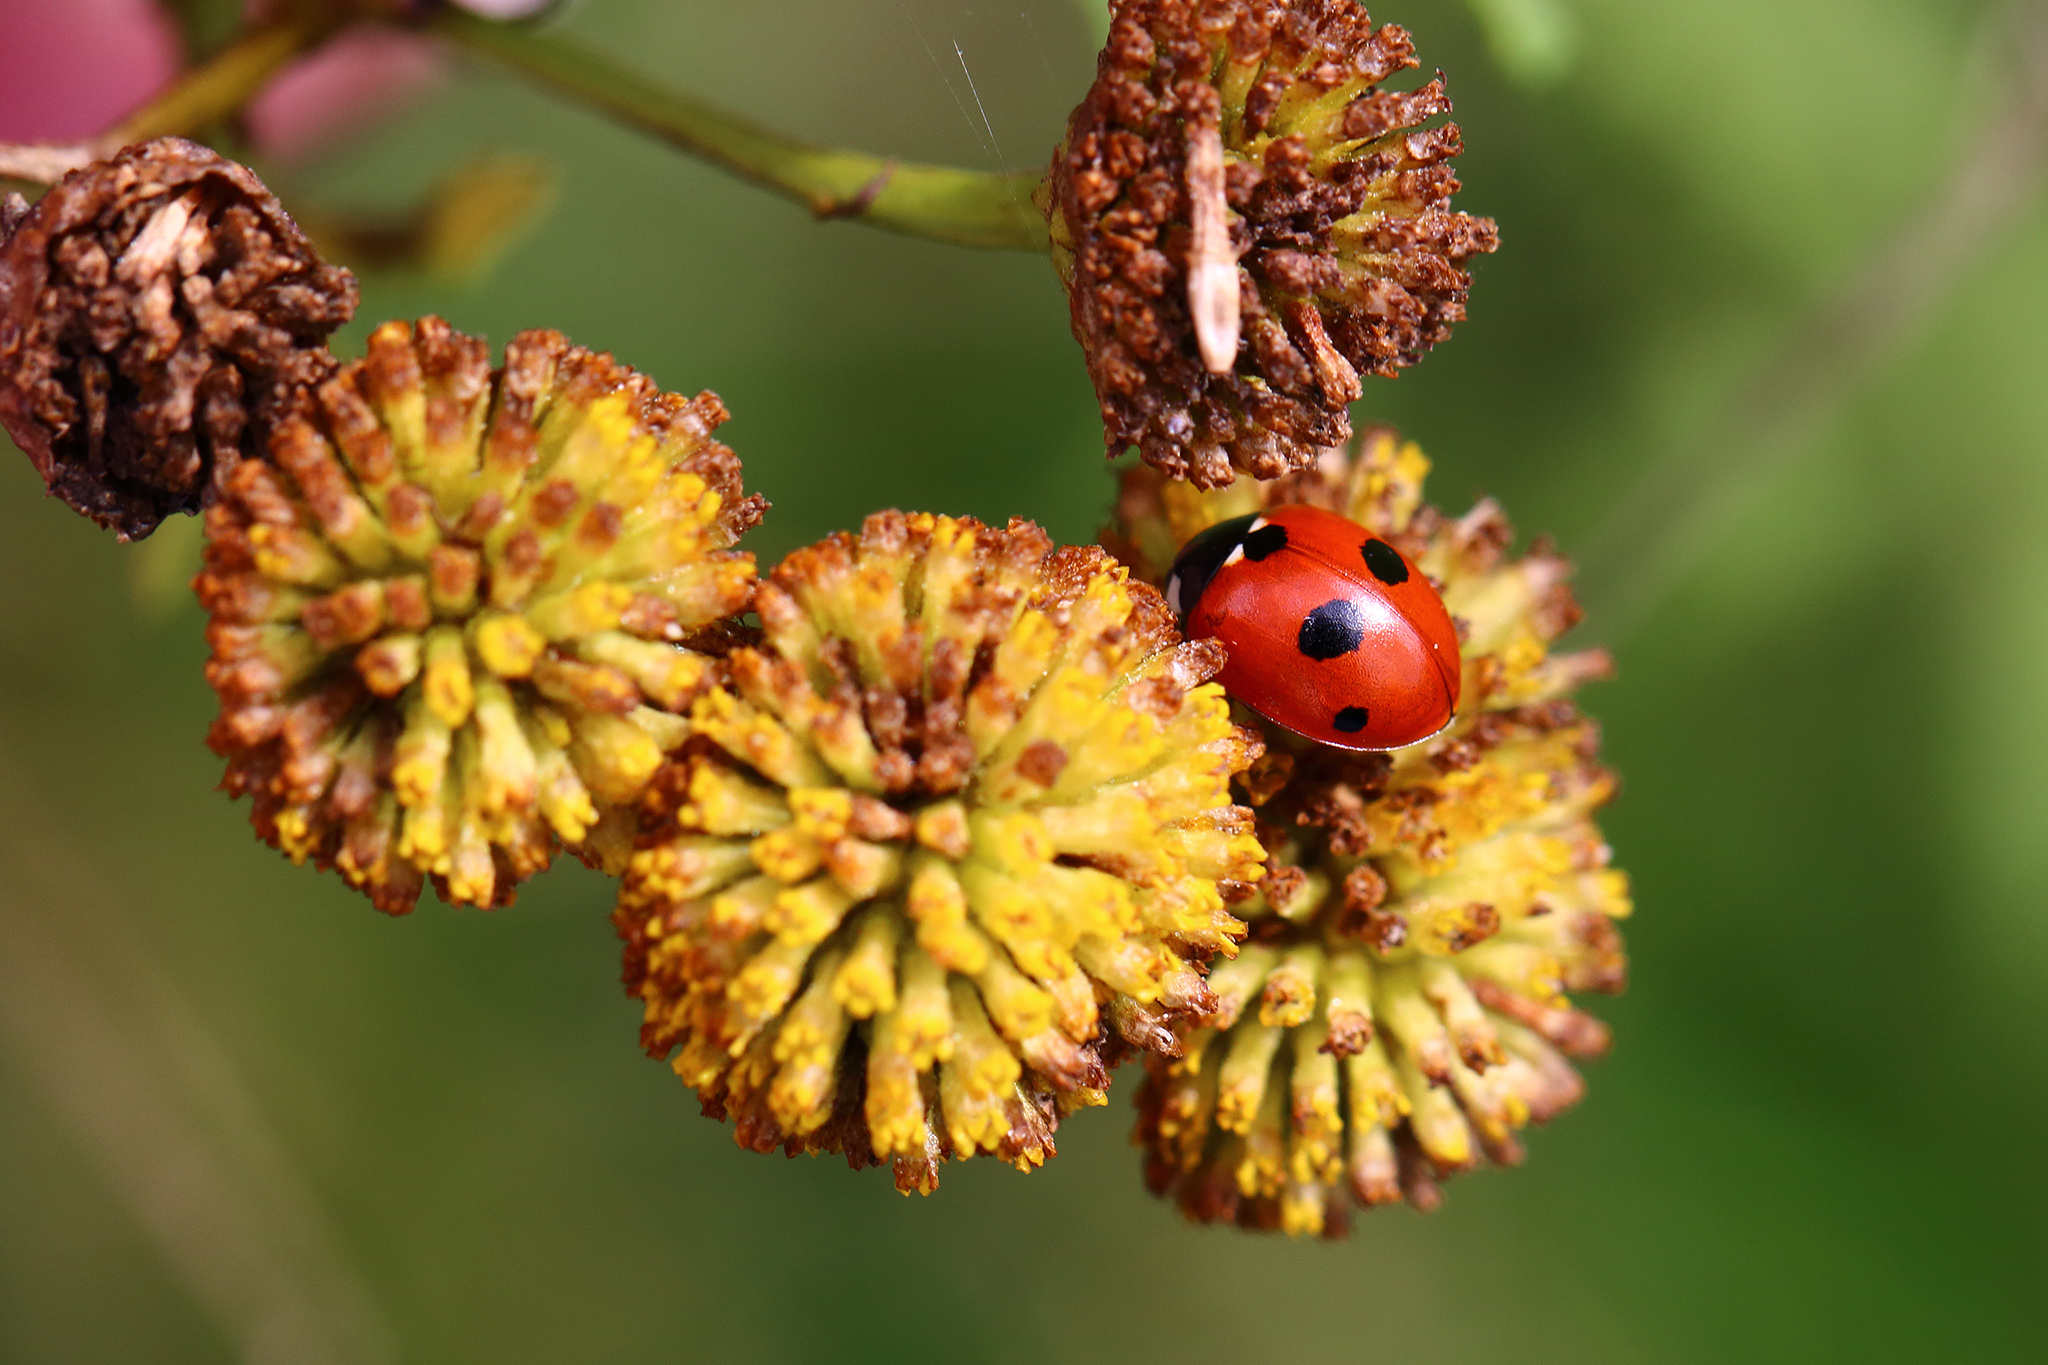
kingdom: Animalia
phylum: Arthropoda
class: Insecta
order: Coleoptera
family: Coccinellidae
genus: Coccinella
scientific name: Coccinella quinquepunctata
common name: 5-spot ladybird
